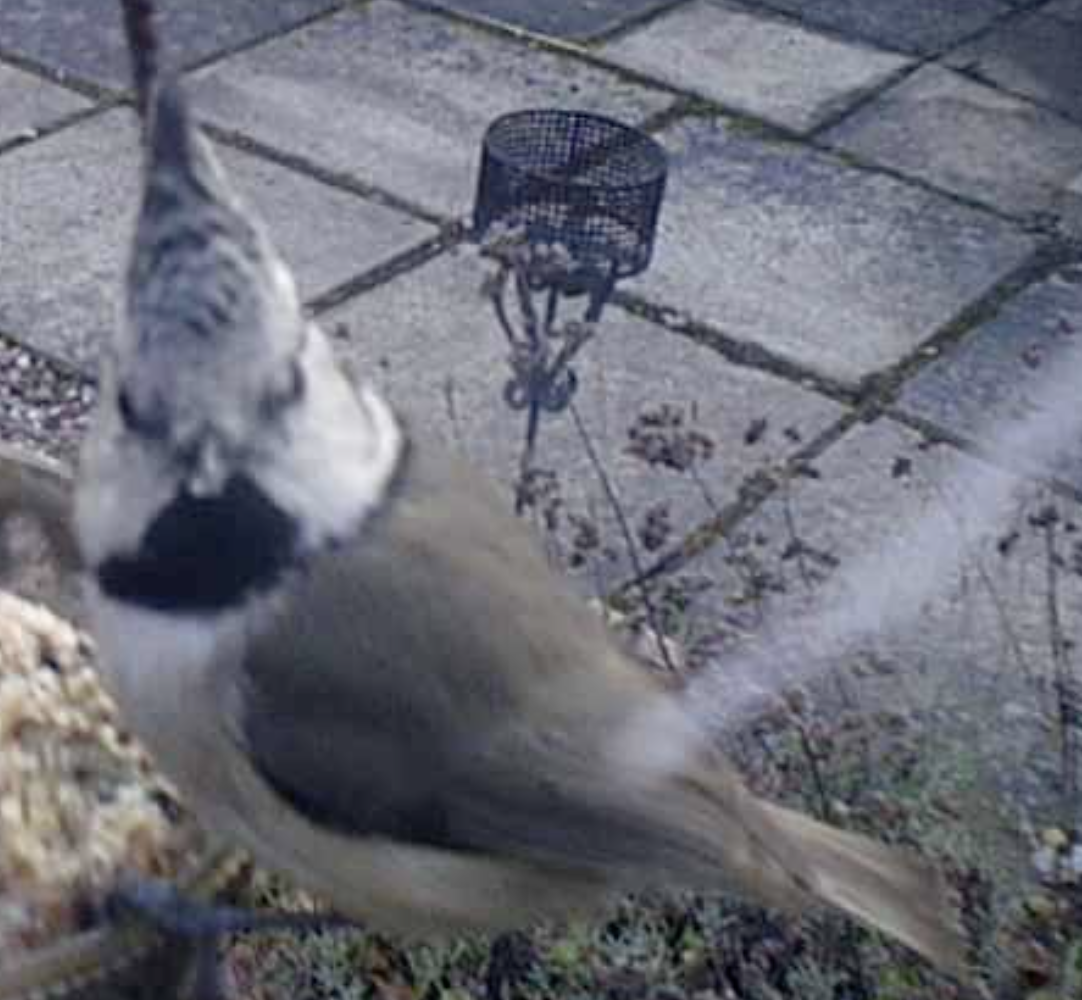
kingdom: Animalia
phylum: Chordata
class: Aves
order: Passeriformes
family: Paridae
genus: Lophophanes
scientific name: Lophophanes cristatus
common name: European crested tit
